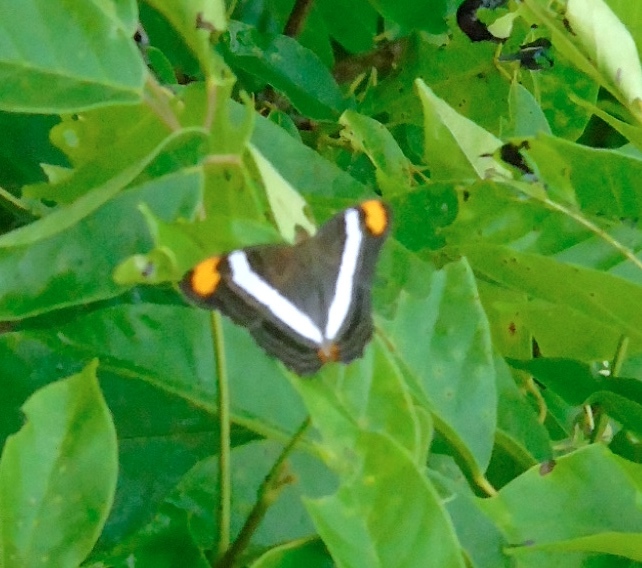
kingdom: Animalia
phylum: Arthropoda
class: Insecta
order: Lepidoptera
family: Nymphalidae
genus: Limenitis
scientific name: Limenitis fessonia
